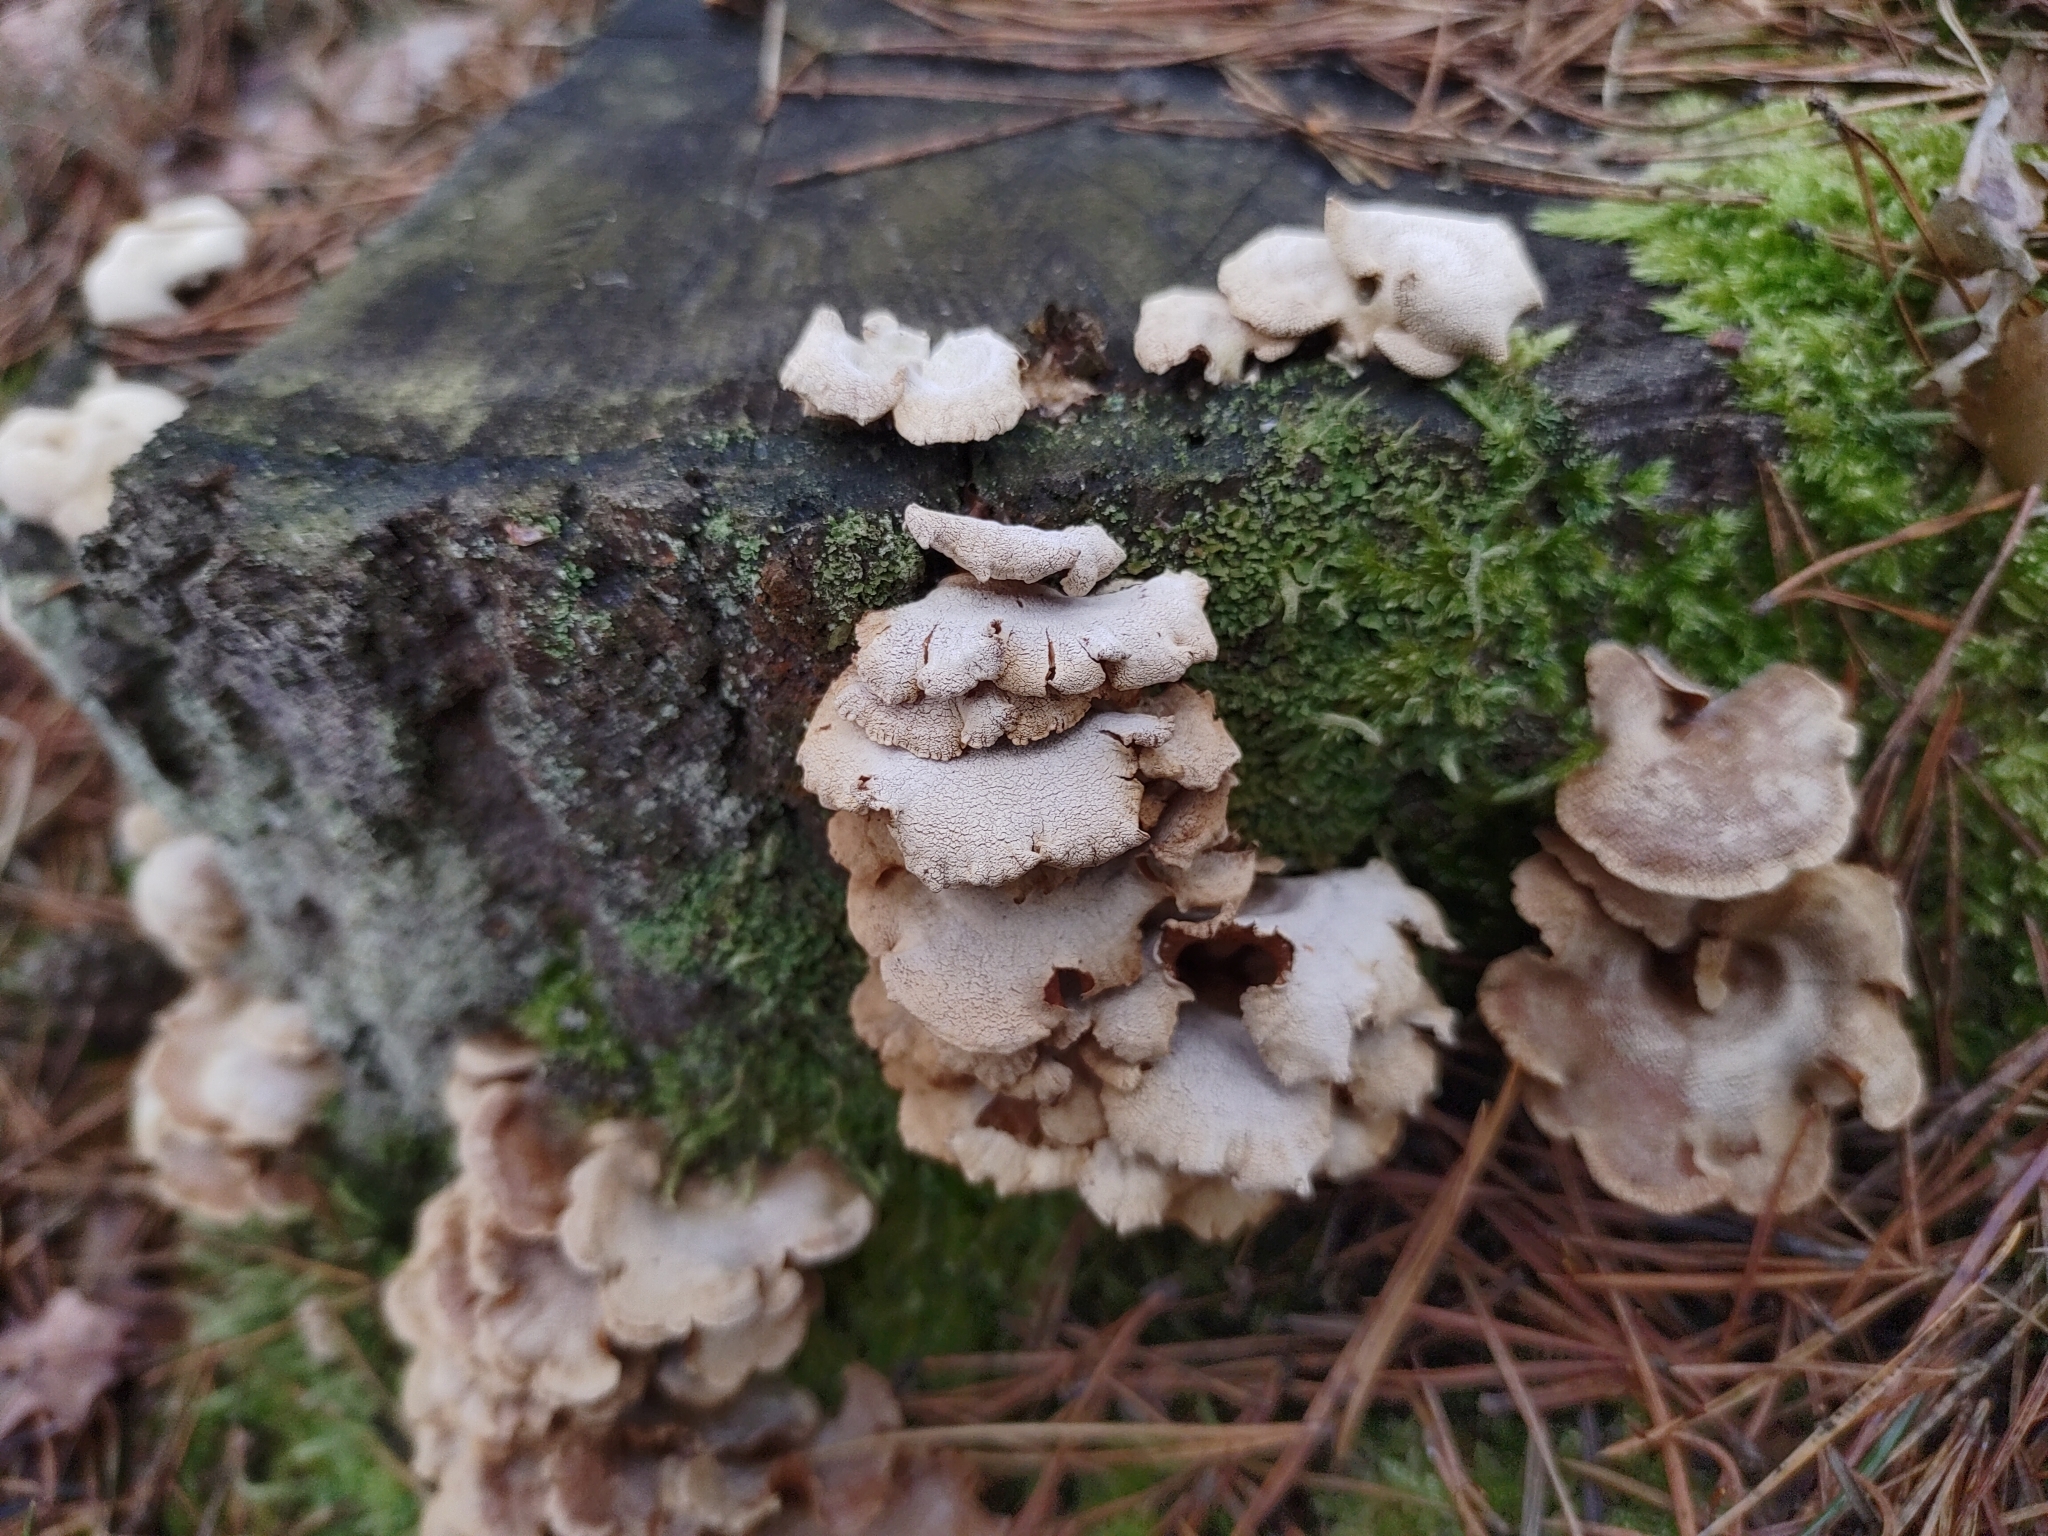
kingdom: Fungi
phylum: Basidiomycota
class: Agaricomycetes
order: Agaricales
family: Mycenaceae
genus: Panellus
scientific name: Panellus stipticus
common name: Bitter oysterling
